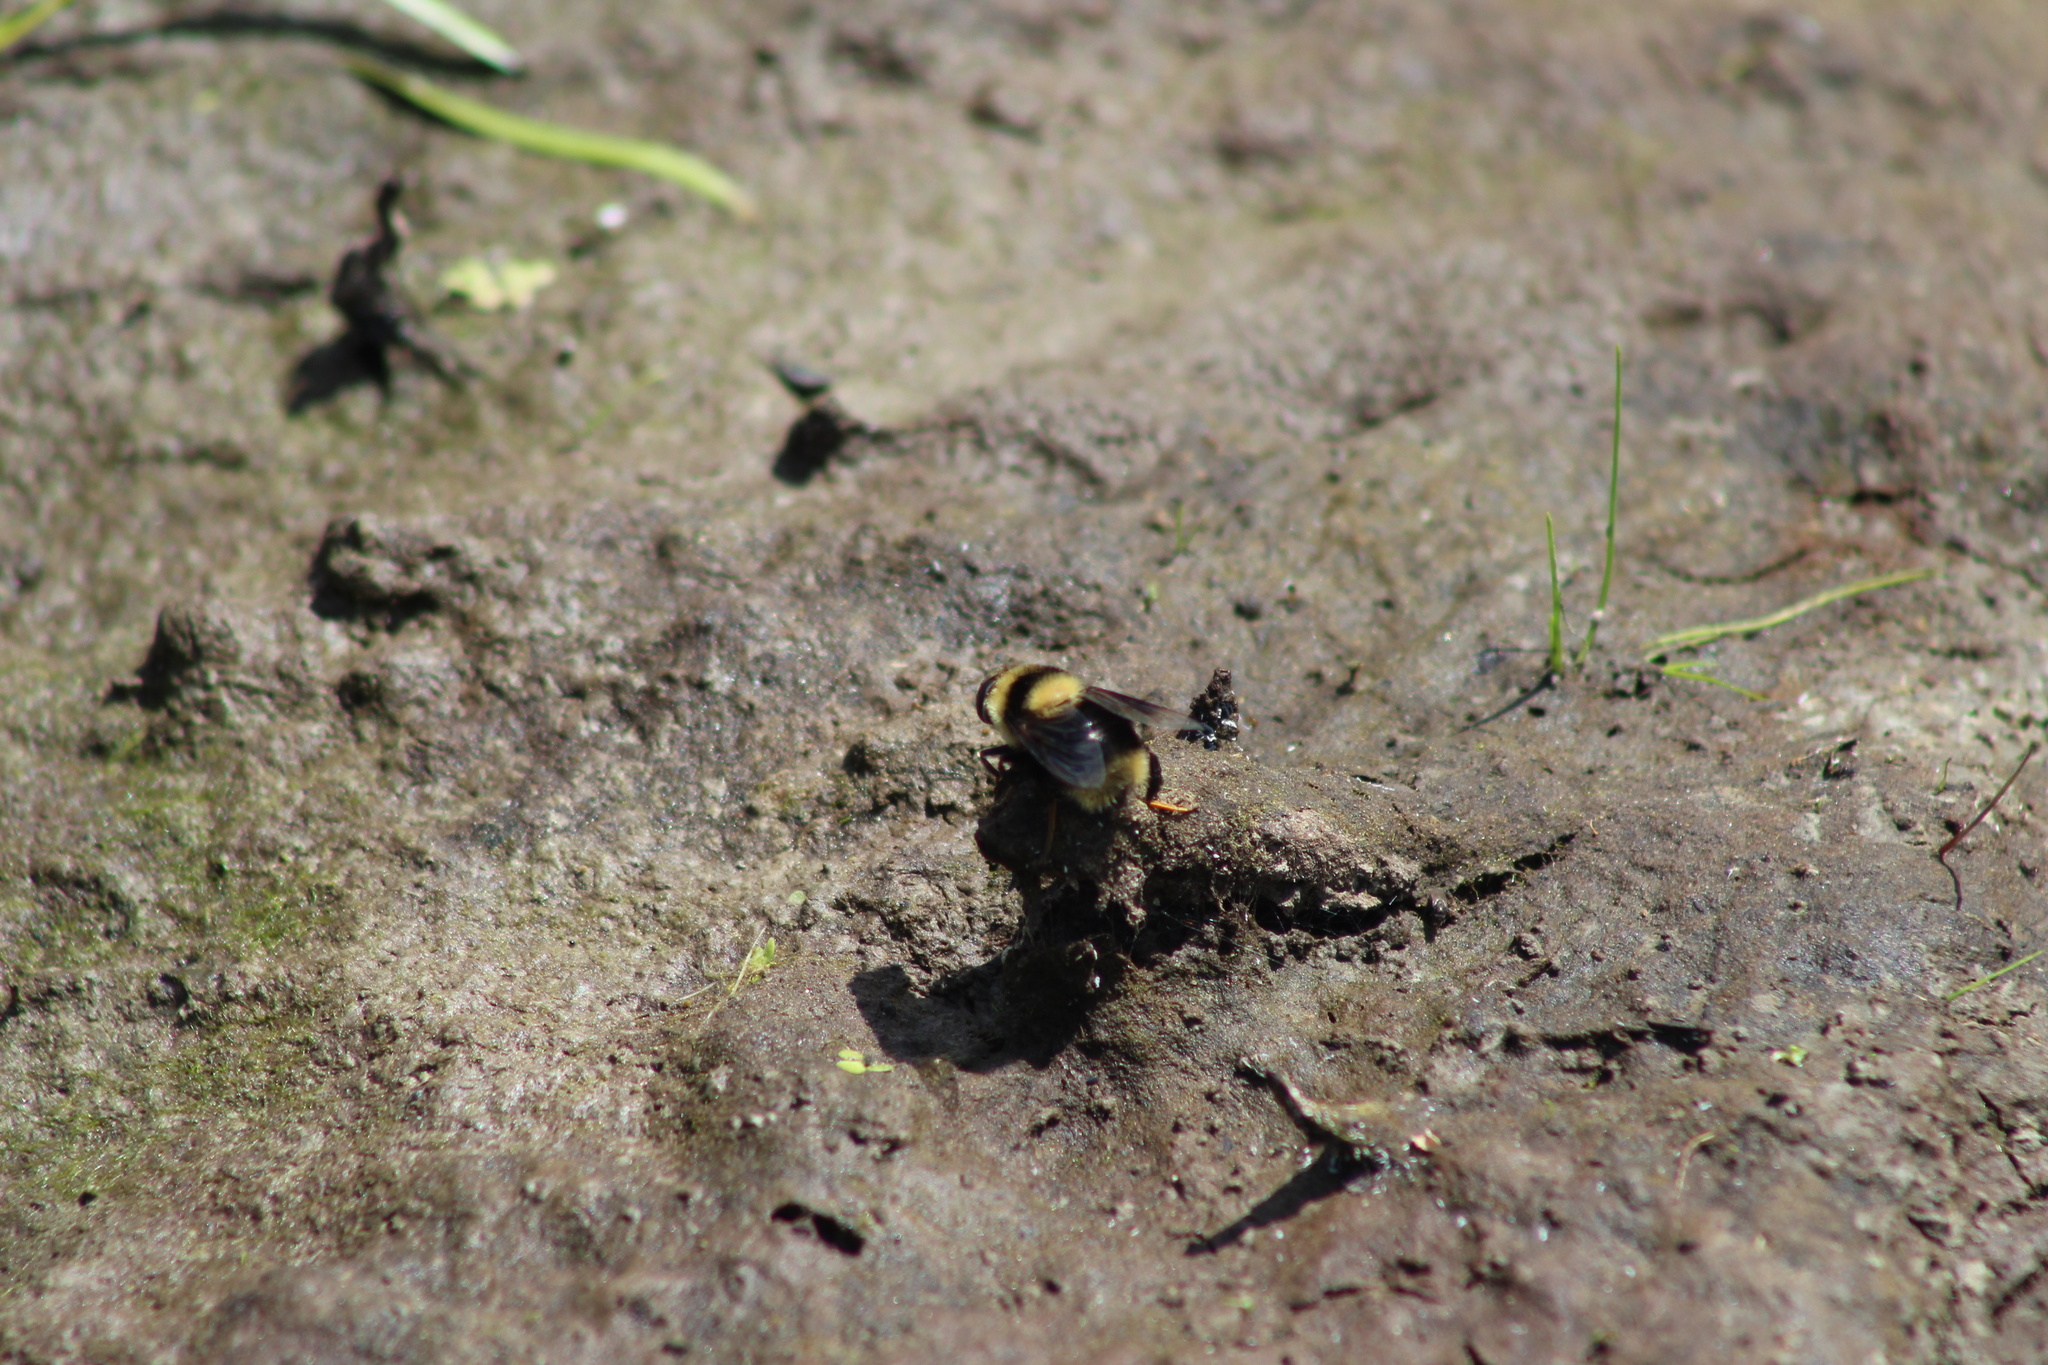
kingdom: Animalia
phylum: Arthropoda
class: Insecta
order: Diptera
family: Syrphidae
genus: Eristalis
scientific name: Eristalis flavipes
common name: Orange-legged drone fly
